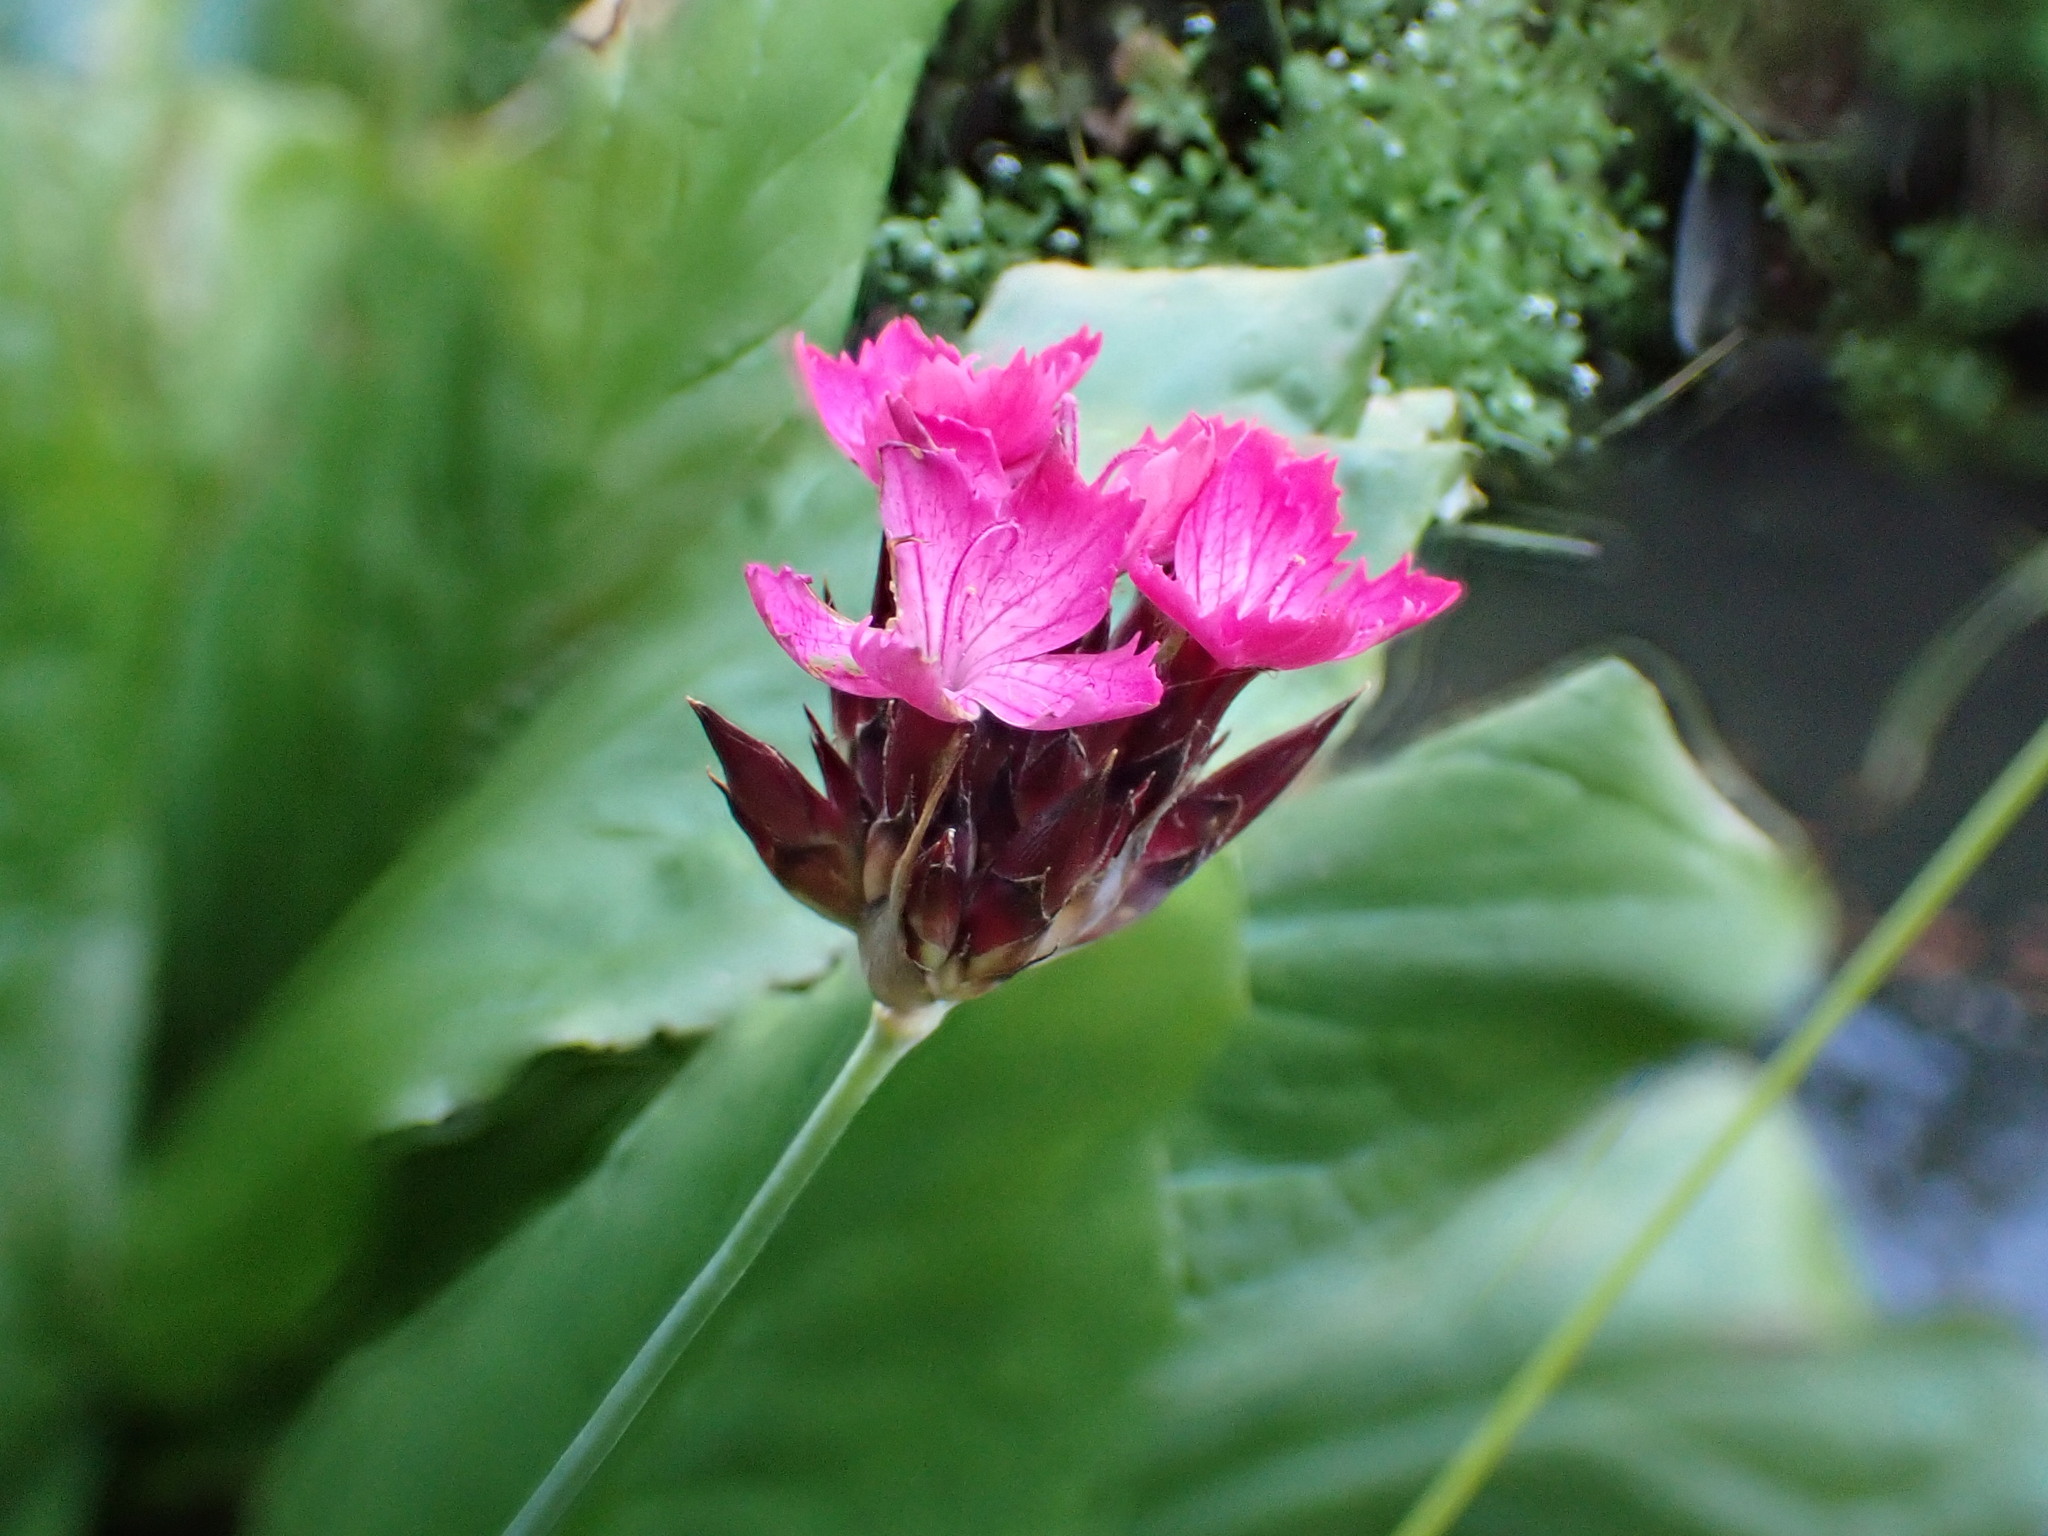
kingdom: Plantae
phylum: Tracheophyta
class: Magnoliopsida
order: Caryophyllales
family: Caryophyllaceae
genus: Dianthus
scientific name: Dianthus carthusianorum
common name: Carthusian pink
